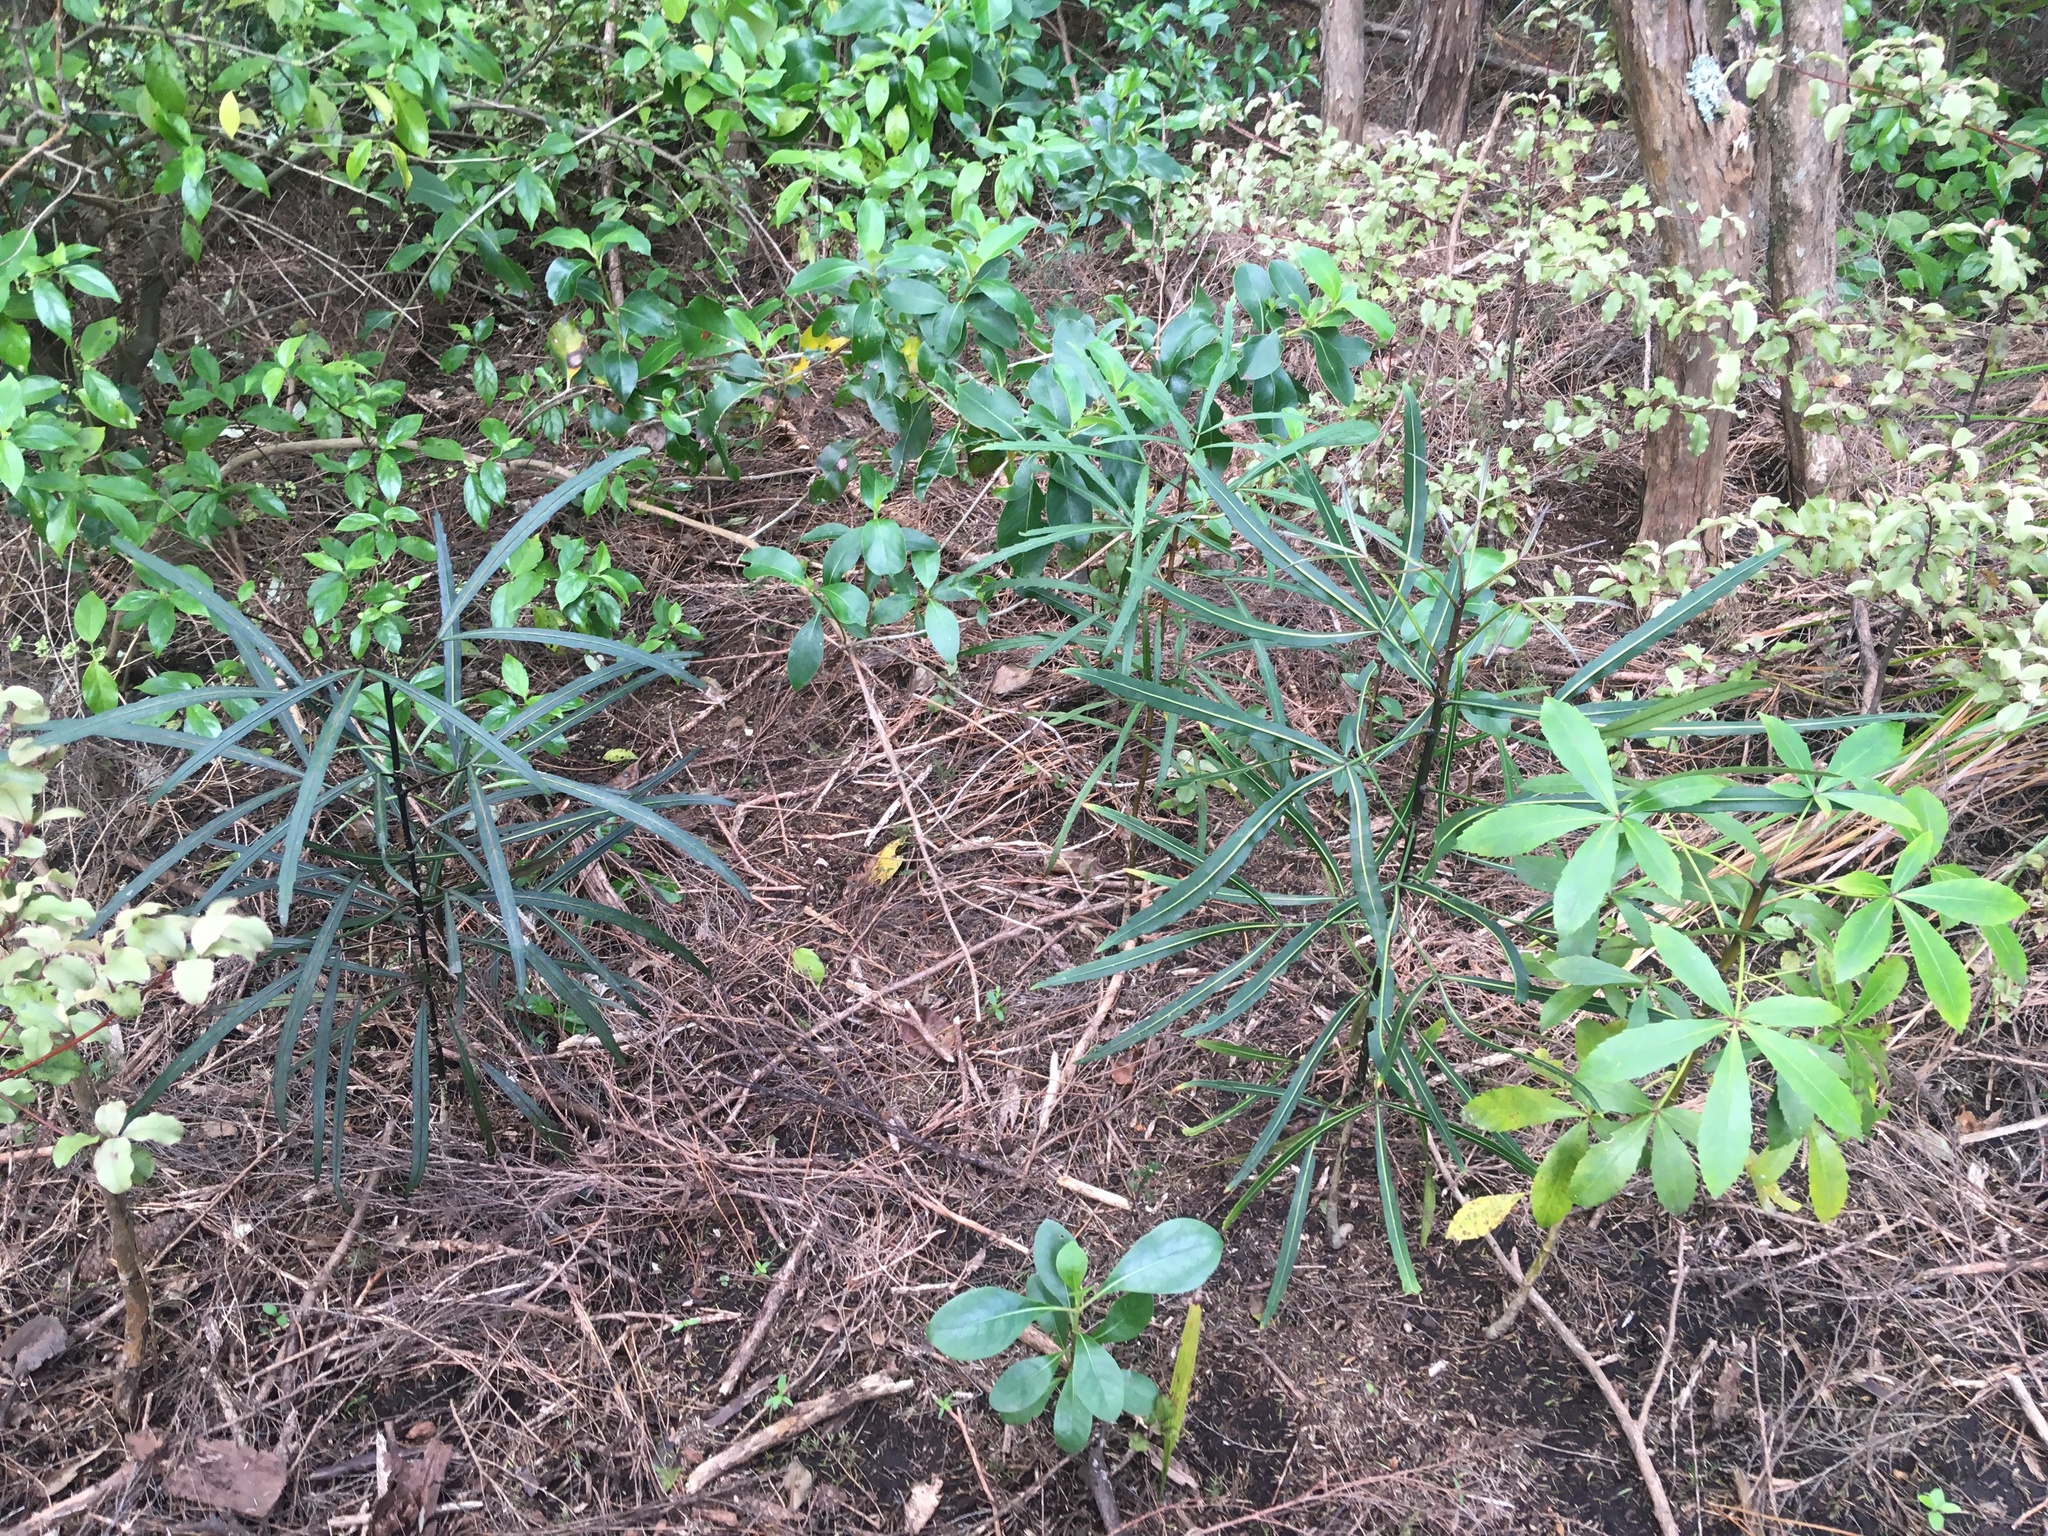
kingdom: Plantae
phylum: Tracheophyta
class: Magnoliopsida
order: Apiales
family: Araliaceae
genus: Pseudopanax
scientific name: Pseudopanax
